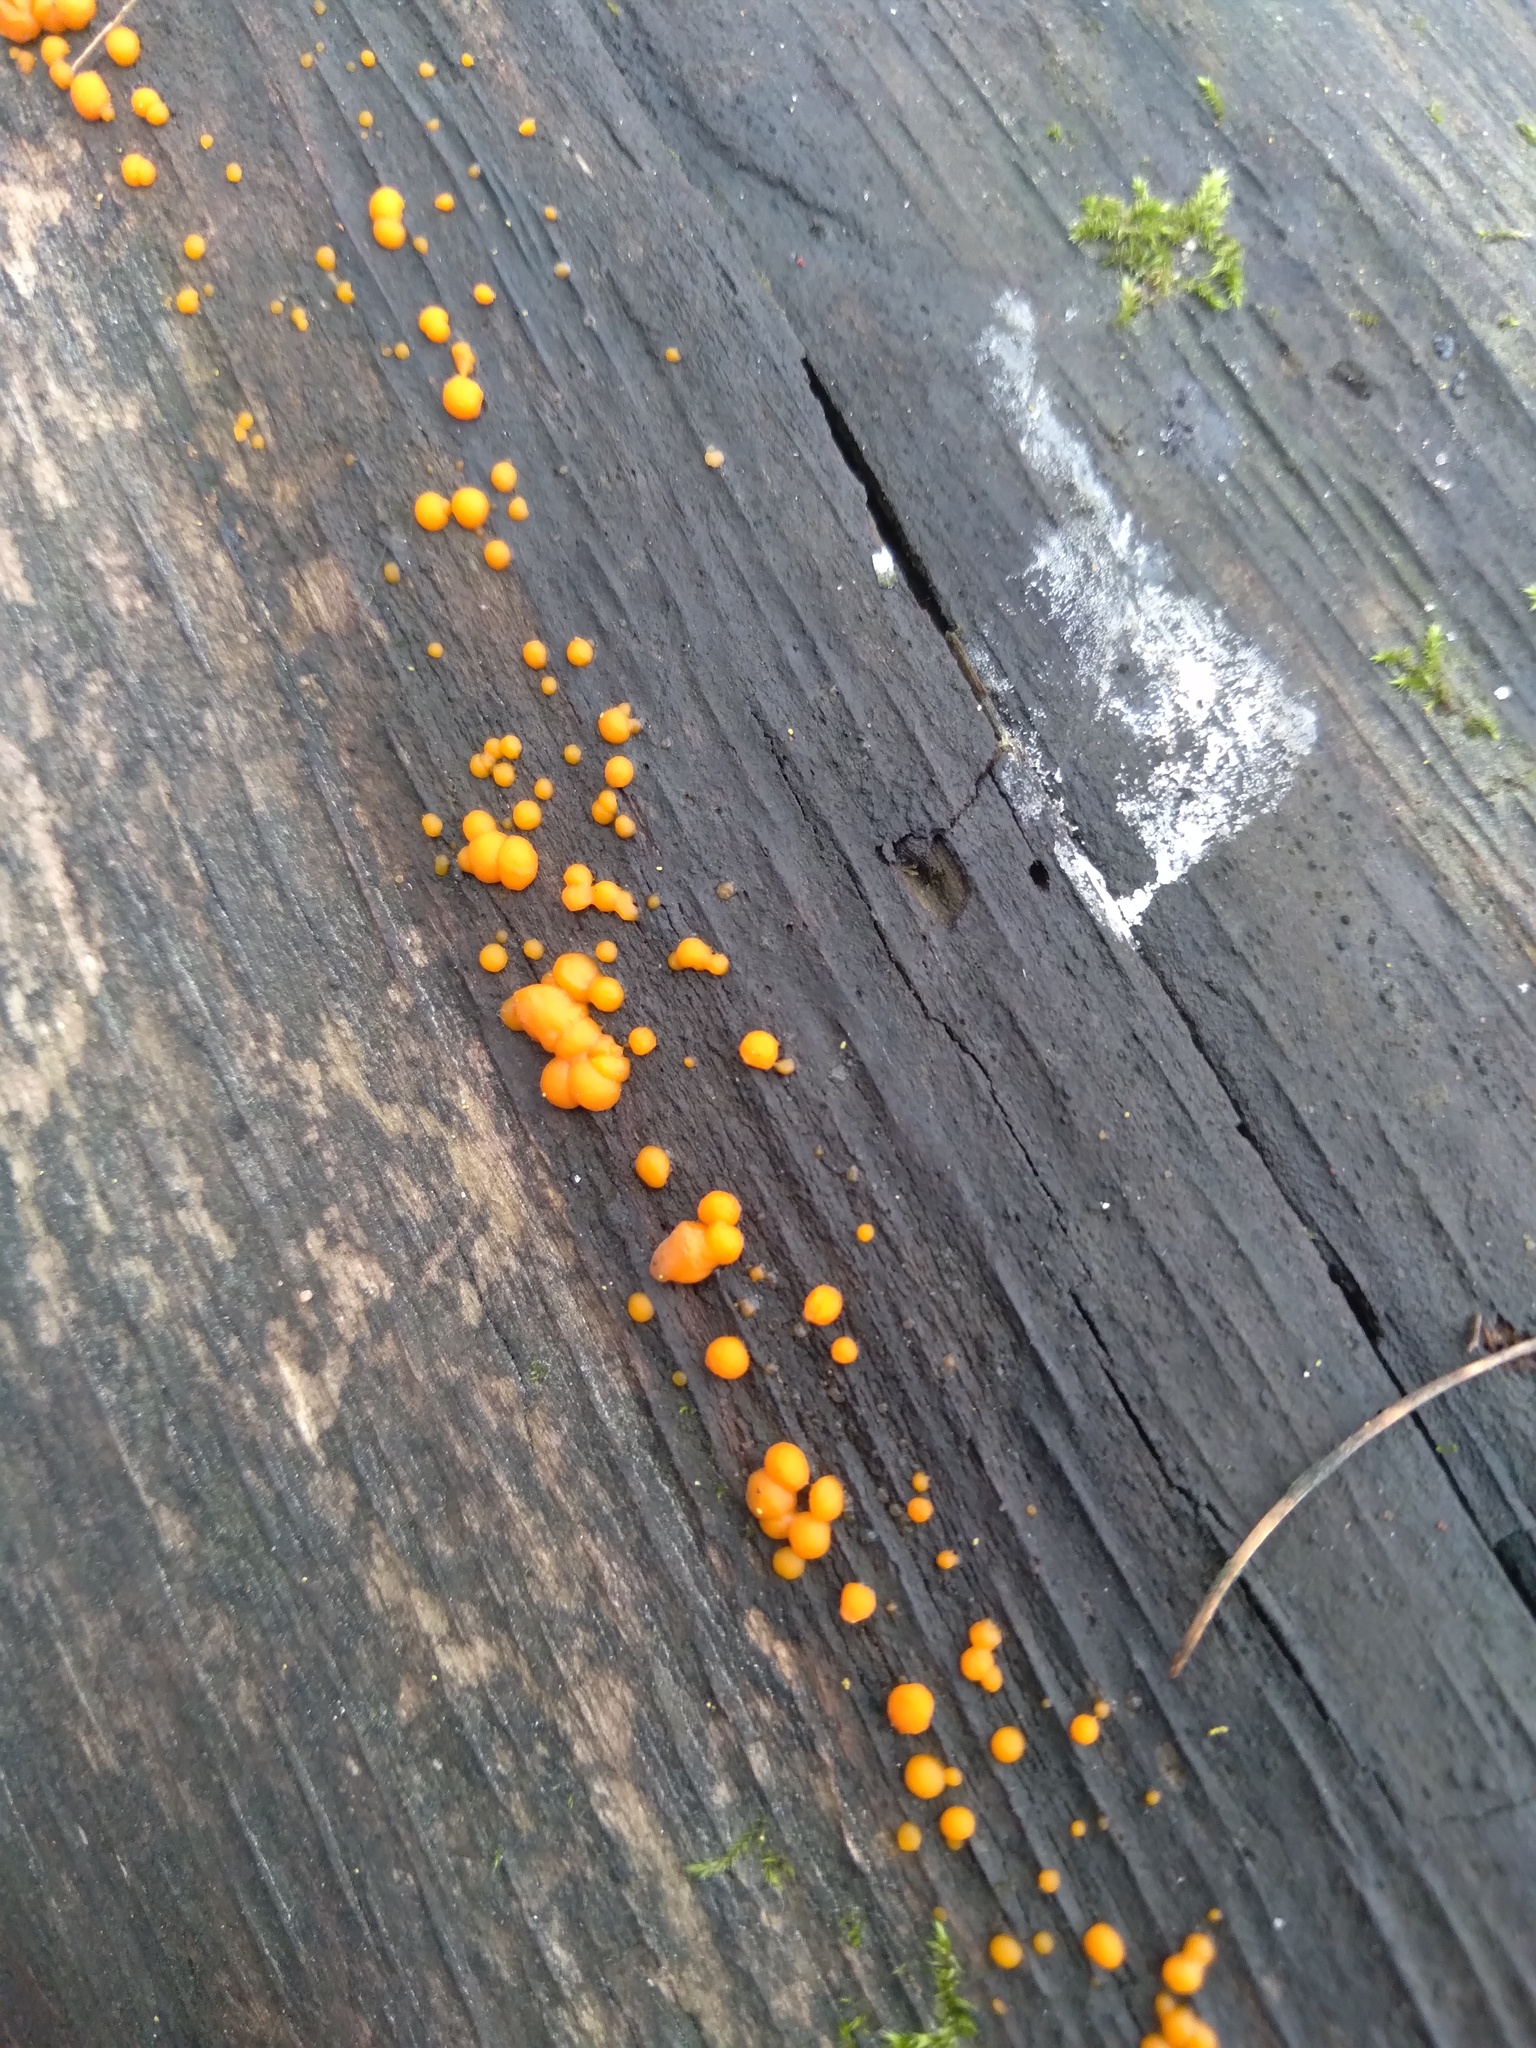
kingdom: Fungi
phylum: Basidiomycota
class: Dacrymycetes
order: Dacrymycetales
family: Dacrymycetaceae
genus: Dacrymyces
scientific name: Dacrymyces stillatus
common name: Common jelly spot
